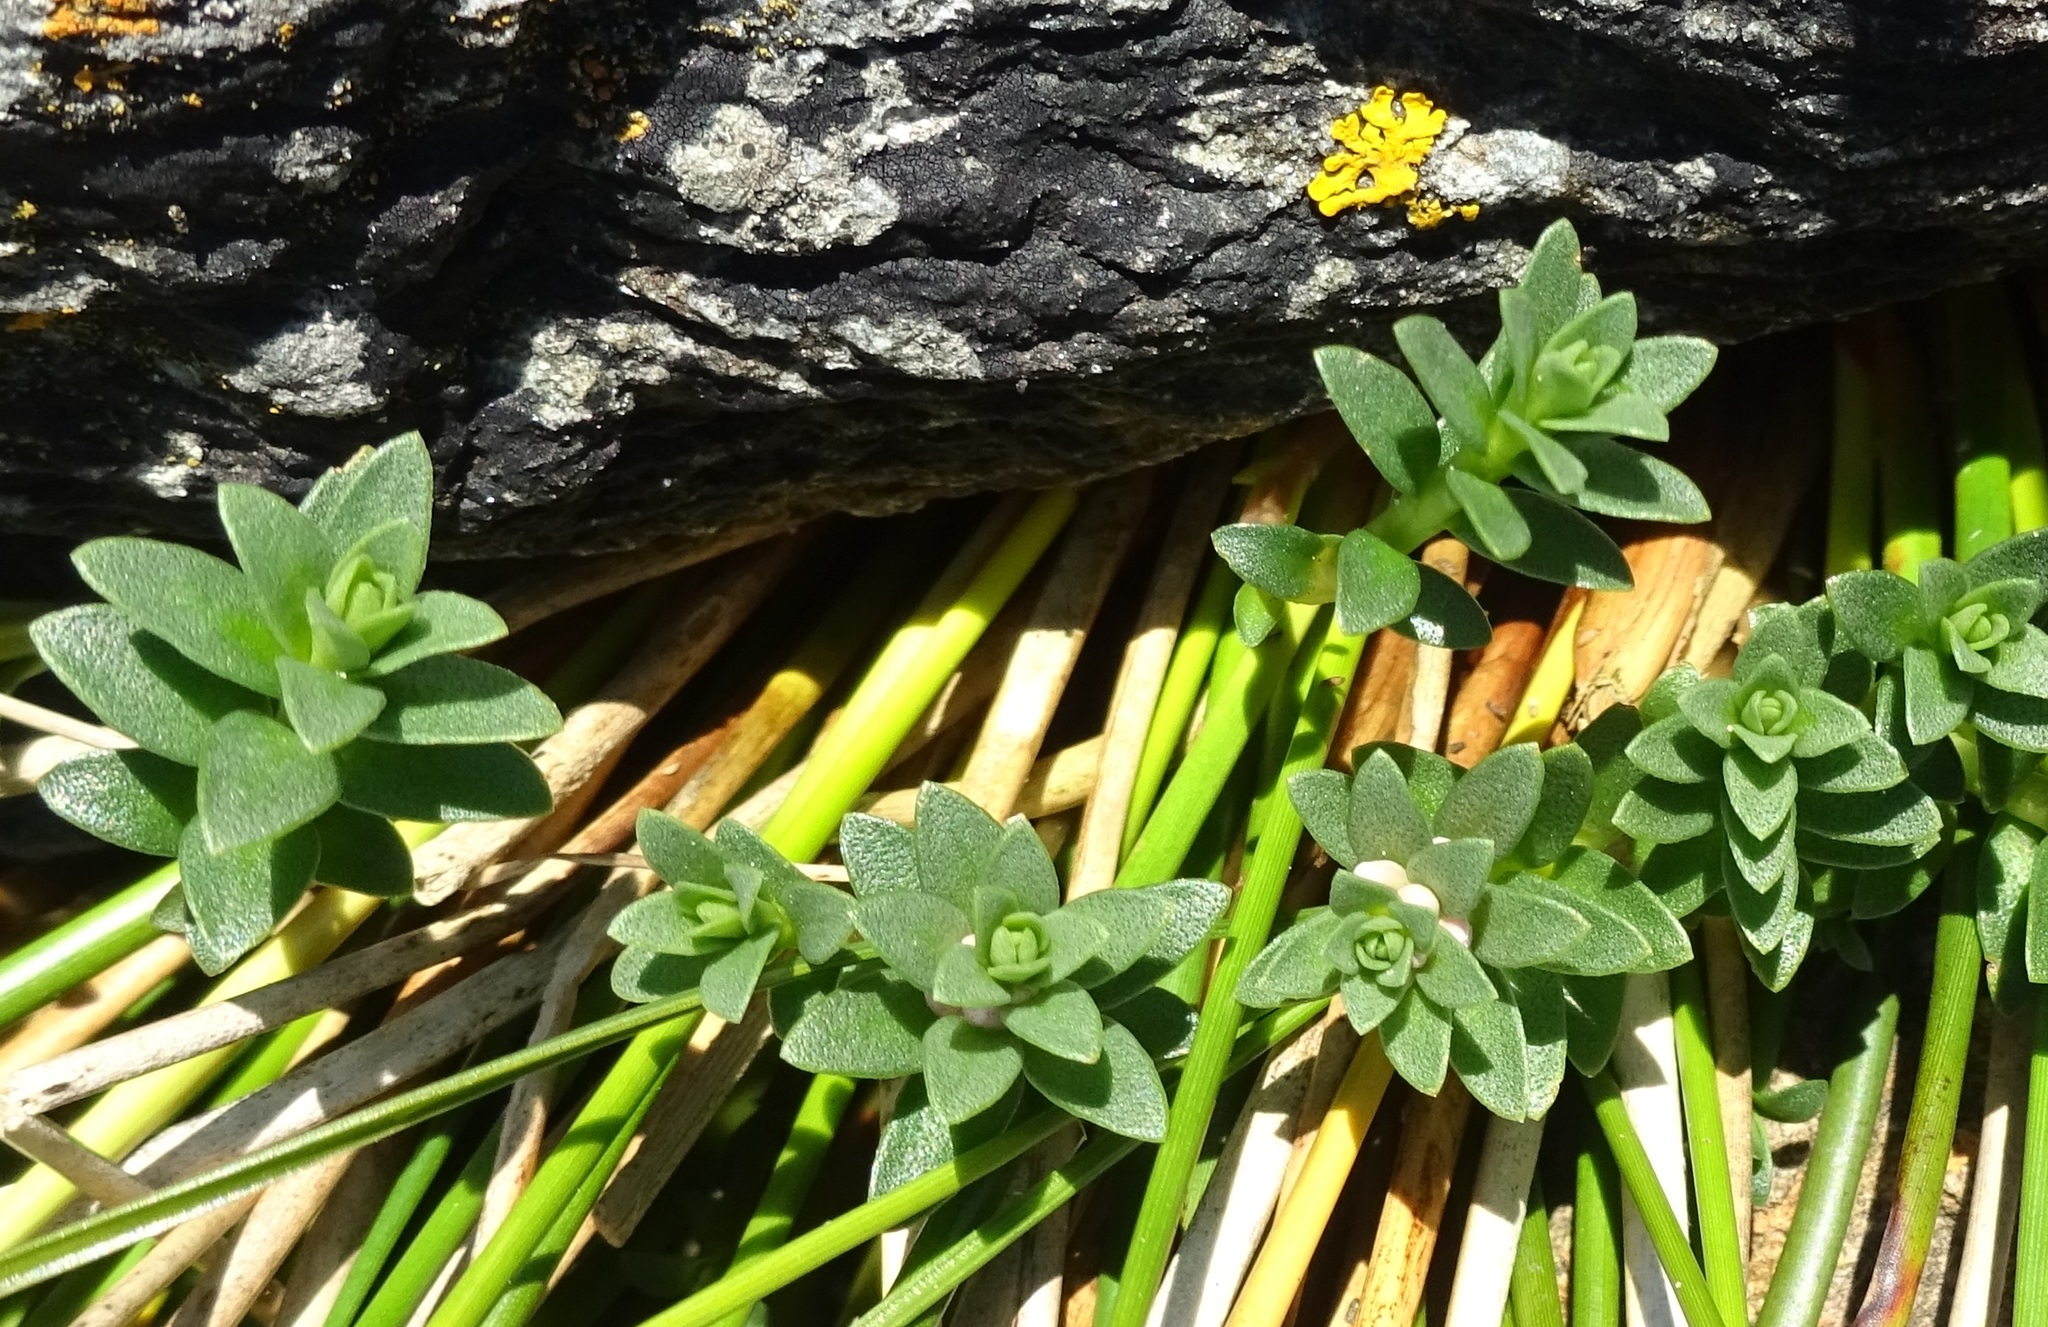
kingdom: Plantae
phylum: Tracheophyta
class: Magnoliopsida
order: Ericales
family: Primulaceae
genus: Lysimachia
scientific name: Lysimachia maritima
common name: Sea milkwort
